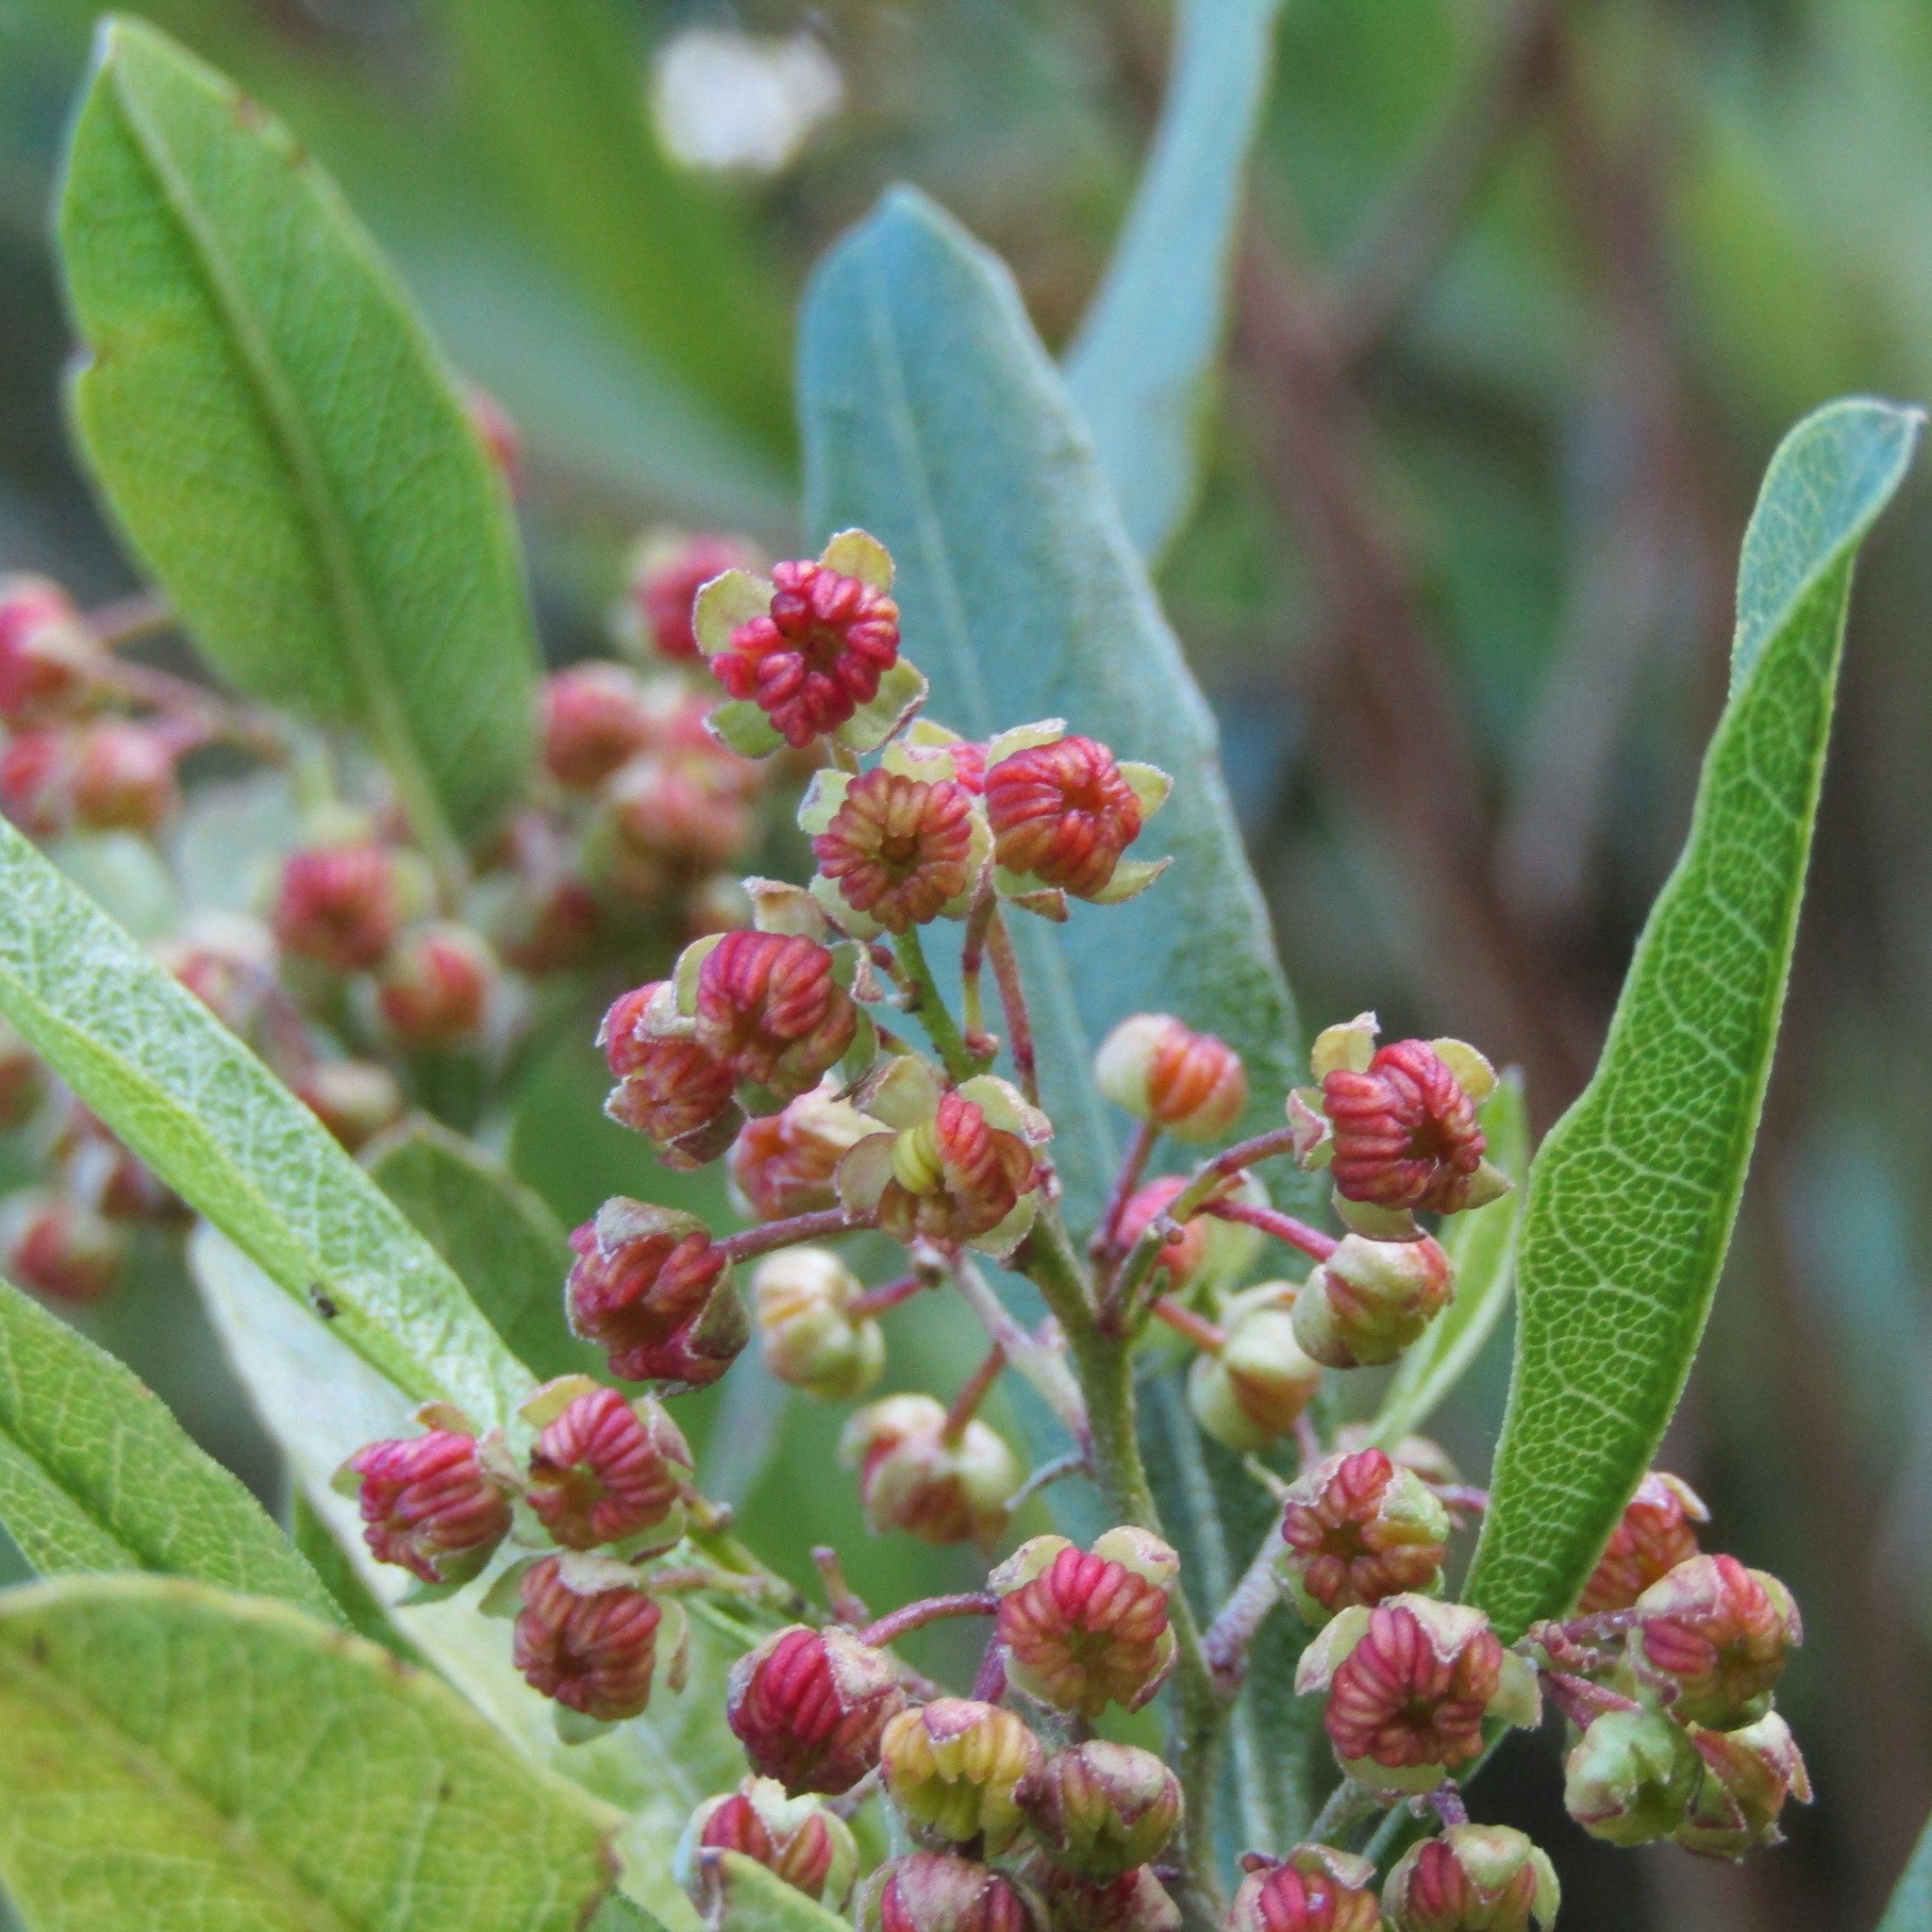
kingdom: Plantae
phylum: Tracheophyta
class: Magnoliopsida
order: Sapindales
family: Sapindaceae
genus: Dodonaea
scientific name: Dodonaea viscosa
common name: Hopbush
